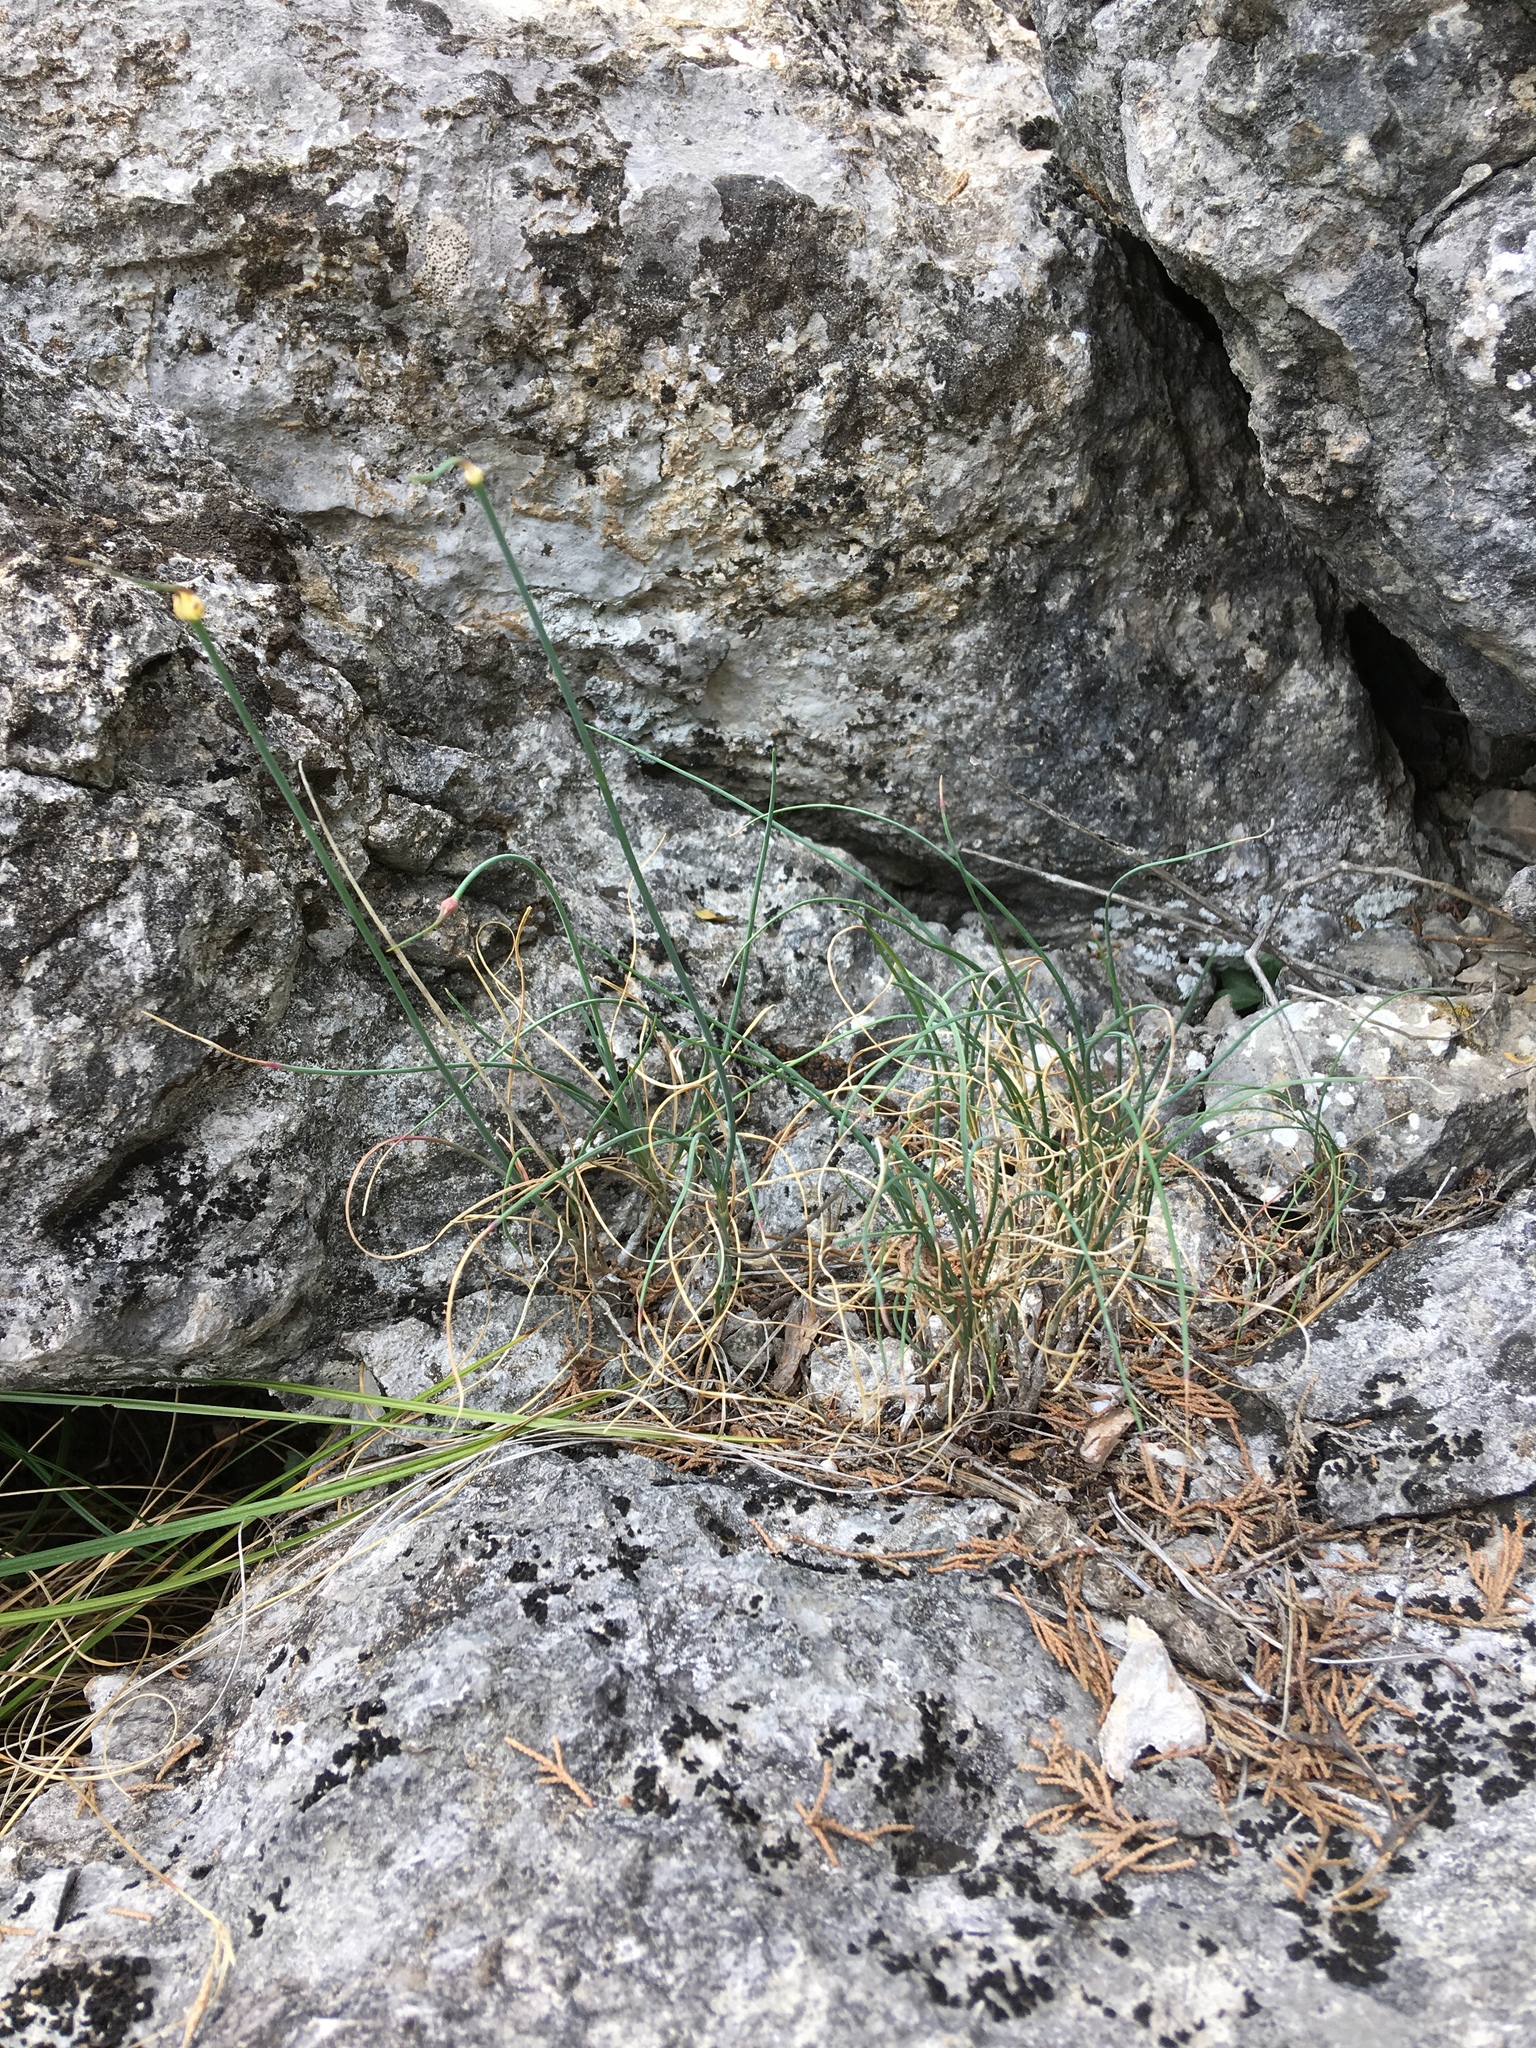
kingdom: Plantae
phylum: Tracheophyta
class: Liliopsida
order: Asparagales
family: Amaryllidaceae
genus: Allium
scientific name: Allium marschallianum
